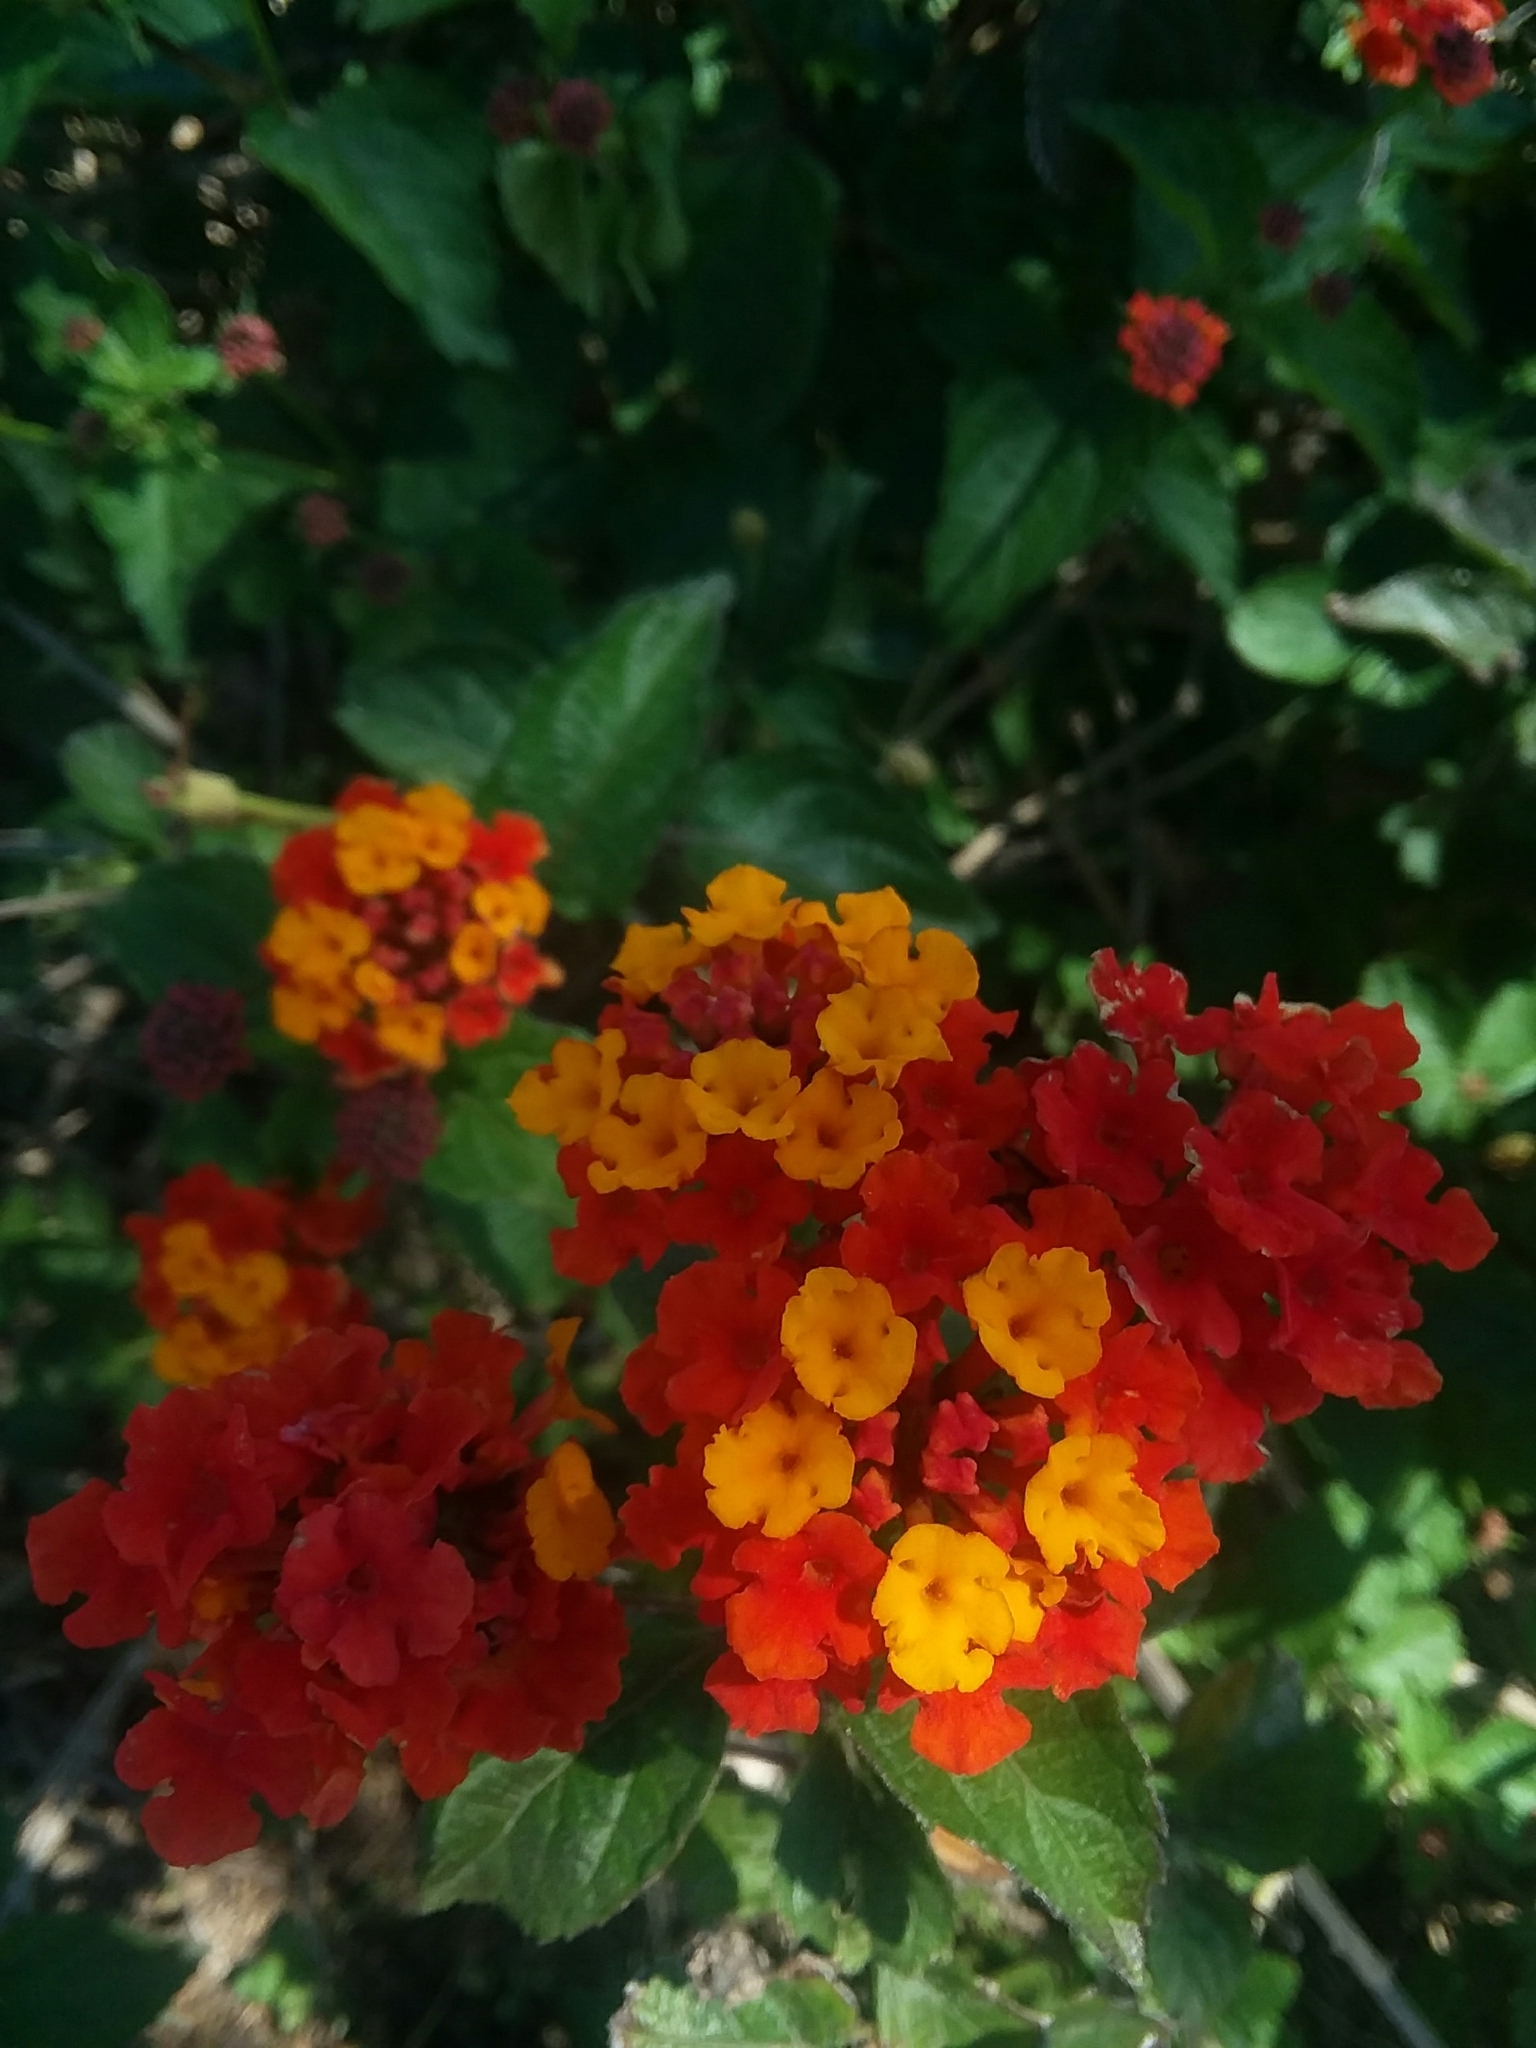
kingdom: Plantae
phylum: Tracheophyta
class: Magnoliopsida
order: Lamiales
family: Verbenaceae
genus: Lantana
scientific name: Lantana camara
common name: Lantana
